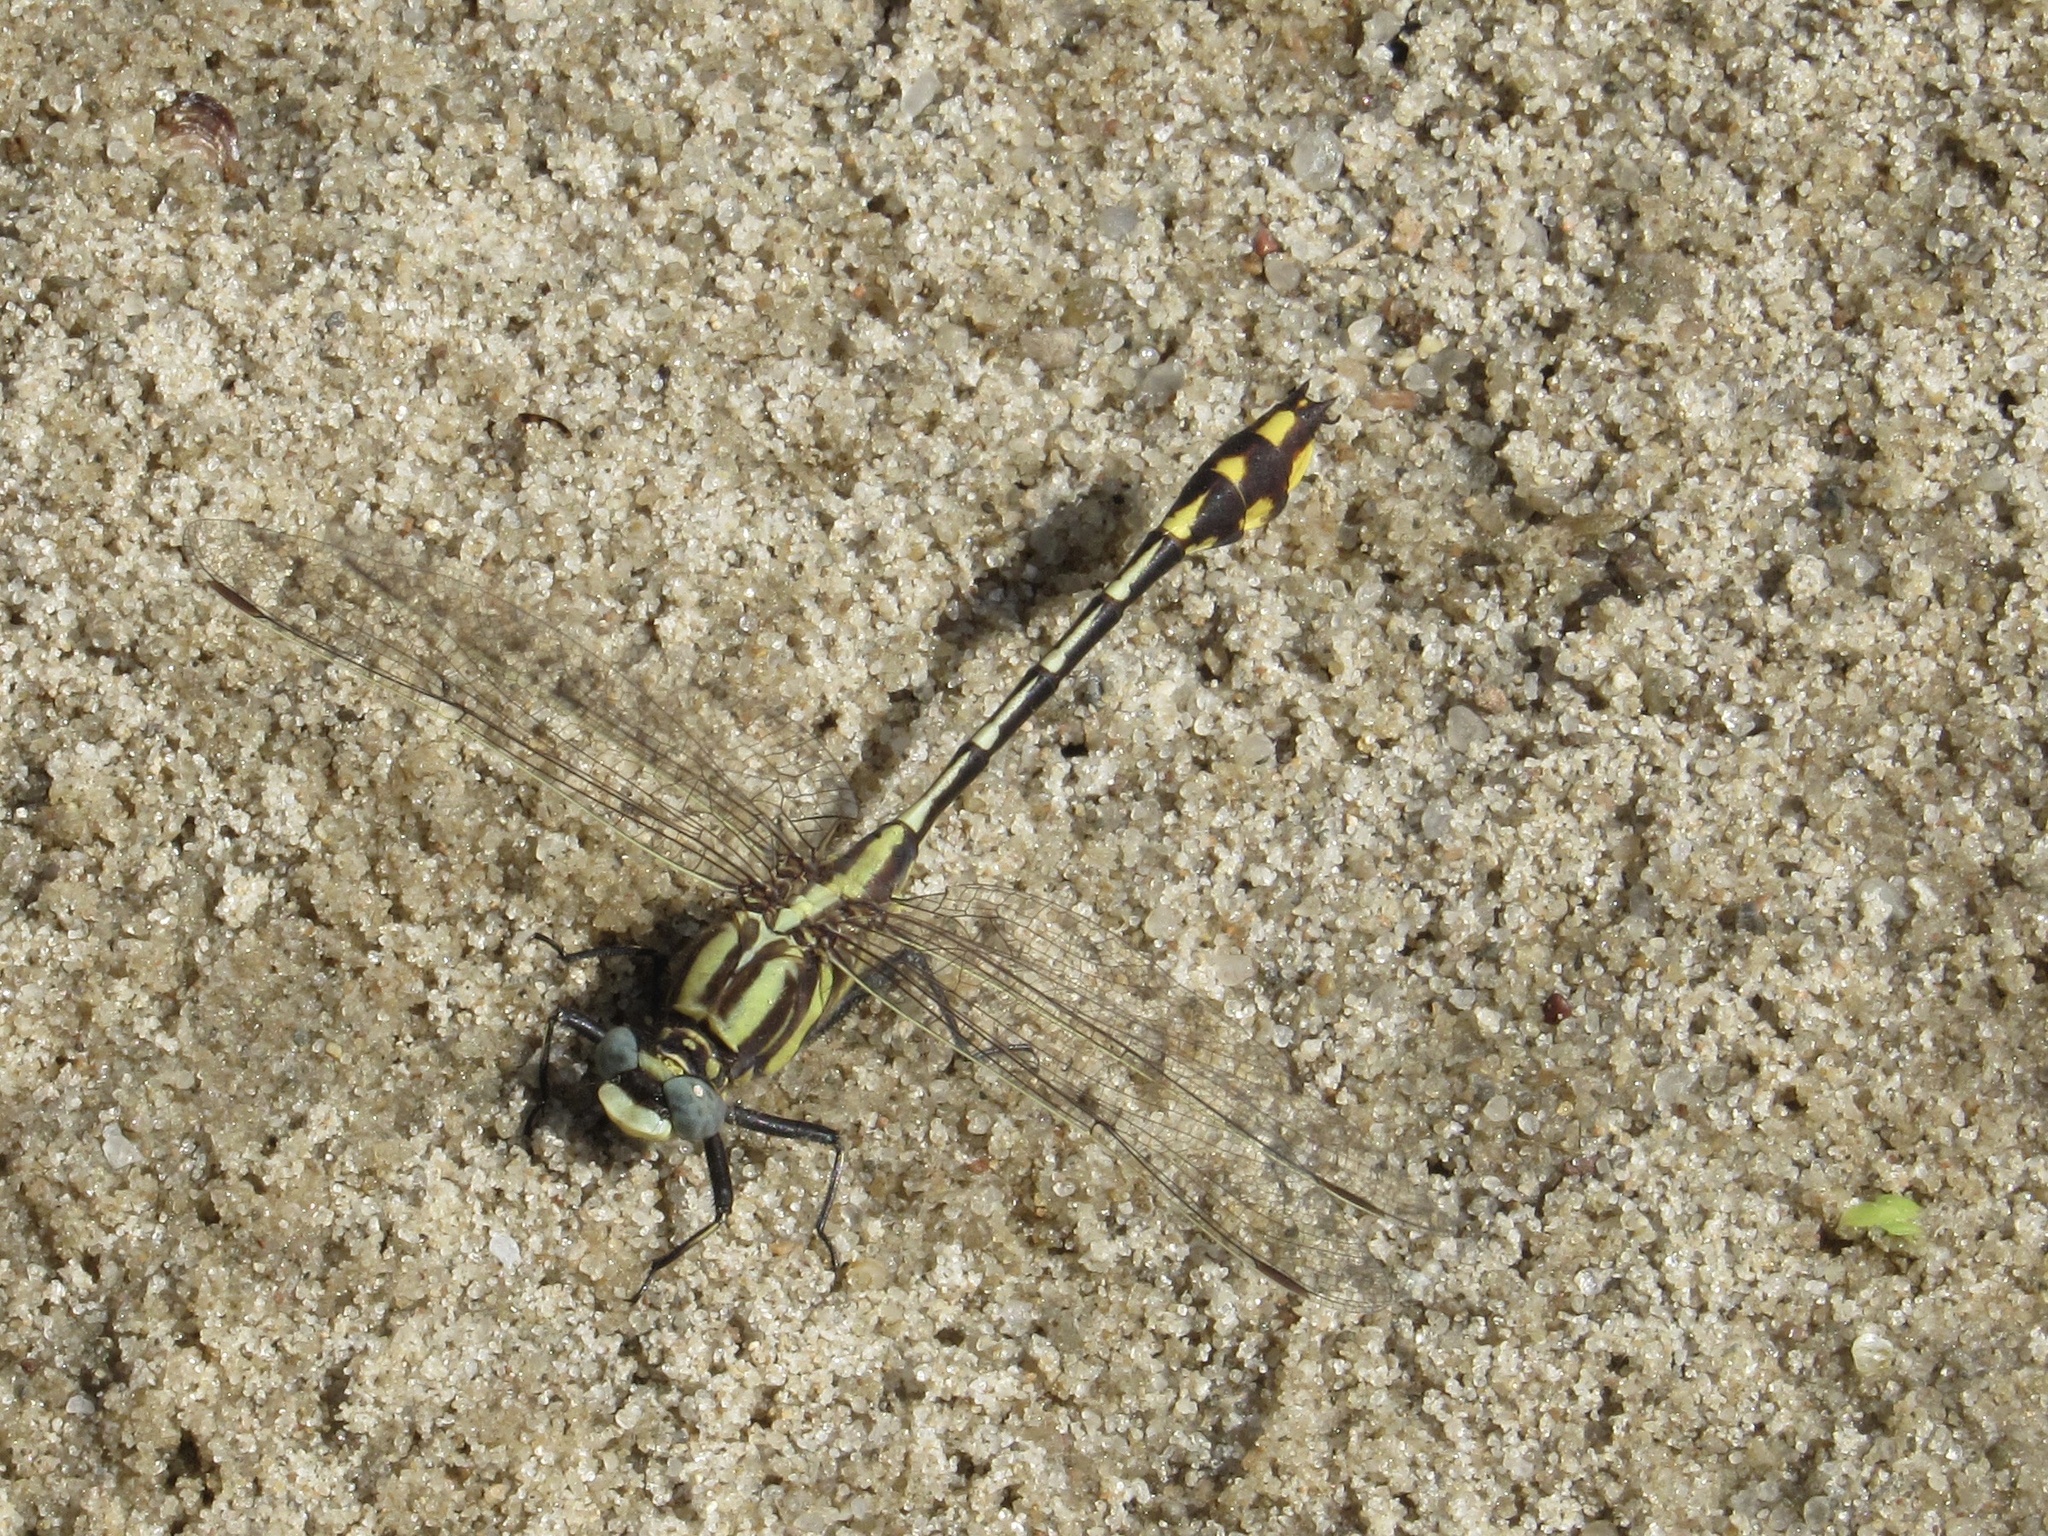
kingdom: Animalia
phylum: Arthropoda
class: Insecta
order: Odonata
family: Gomphidae
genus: Gomphurus
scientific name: Gomphurus externus
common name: Plains clubtail
